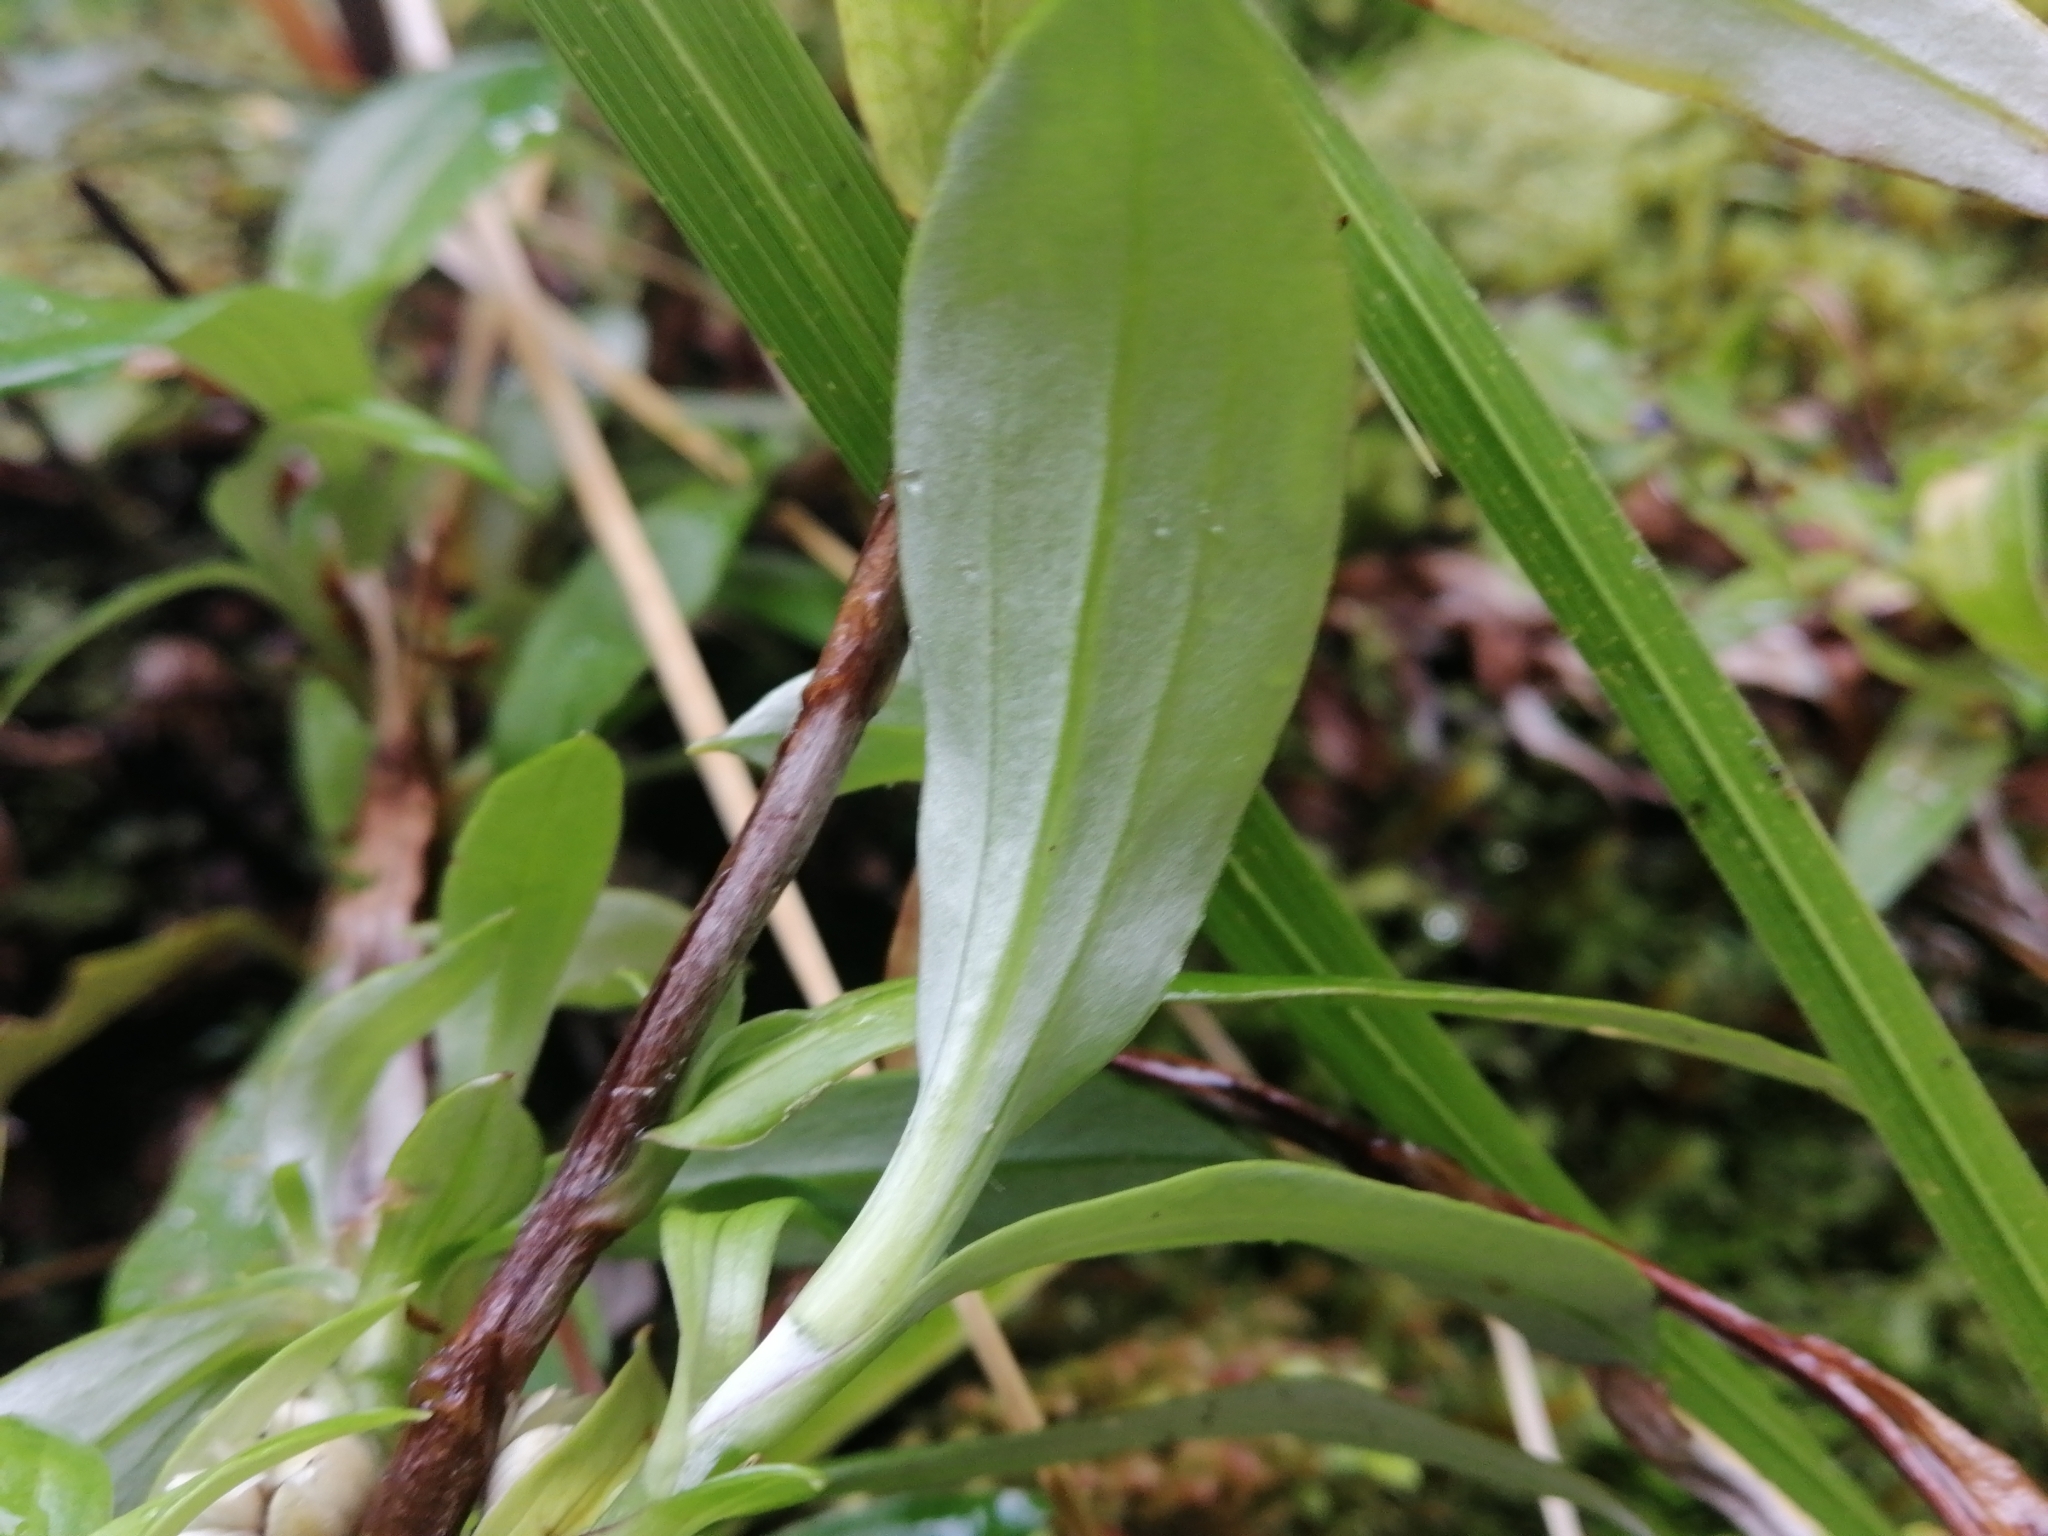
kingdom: Plantae
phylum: Tracheophyta
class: Magnoliopsida
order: Asterales
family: Asteraceae
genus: Anaphalioides
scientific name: Anaphalioides trinervis
